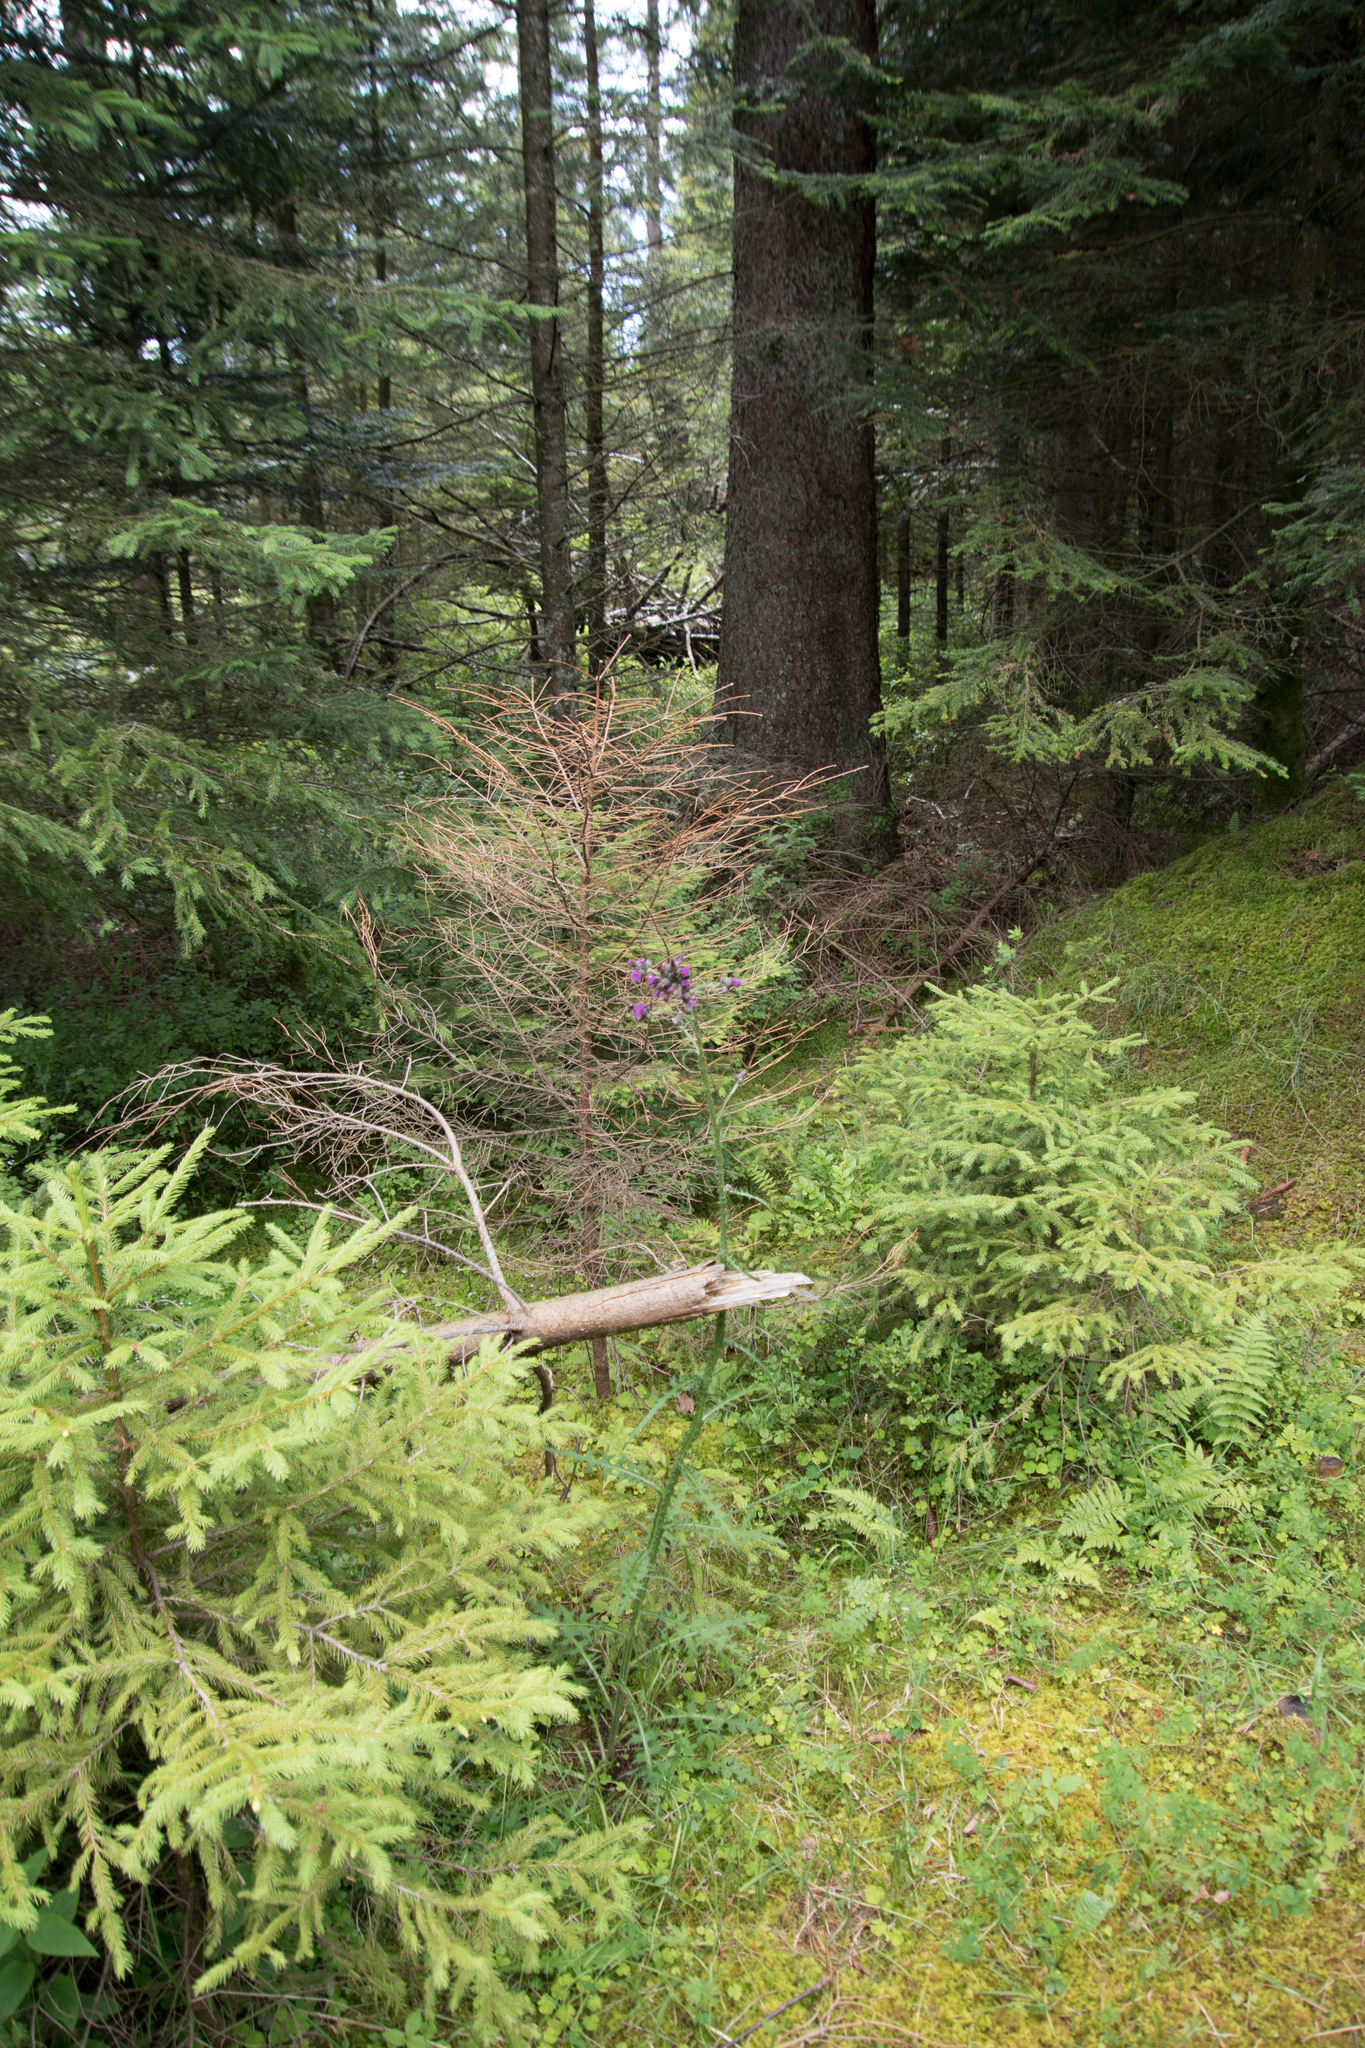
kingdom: Plantae
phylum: Tracheophyta
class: Magnoliopsida
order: Asterales
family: Asteraceae
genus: Cirsium
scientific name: Cirsium palustre
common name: Marsh thistle
